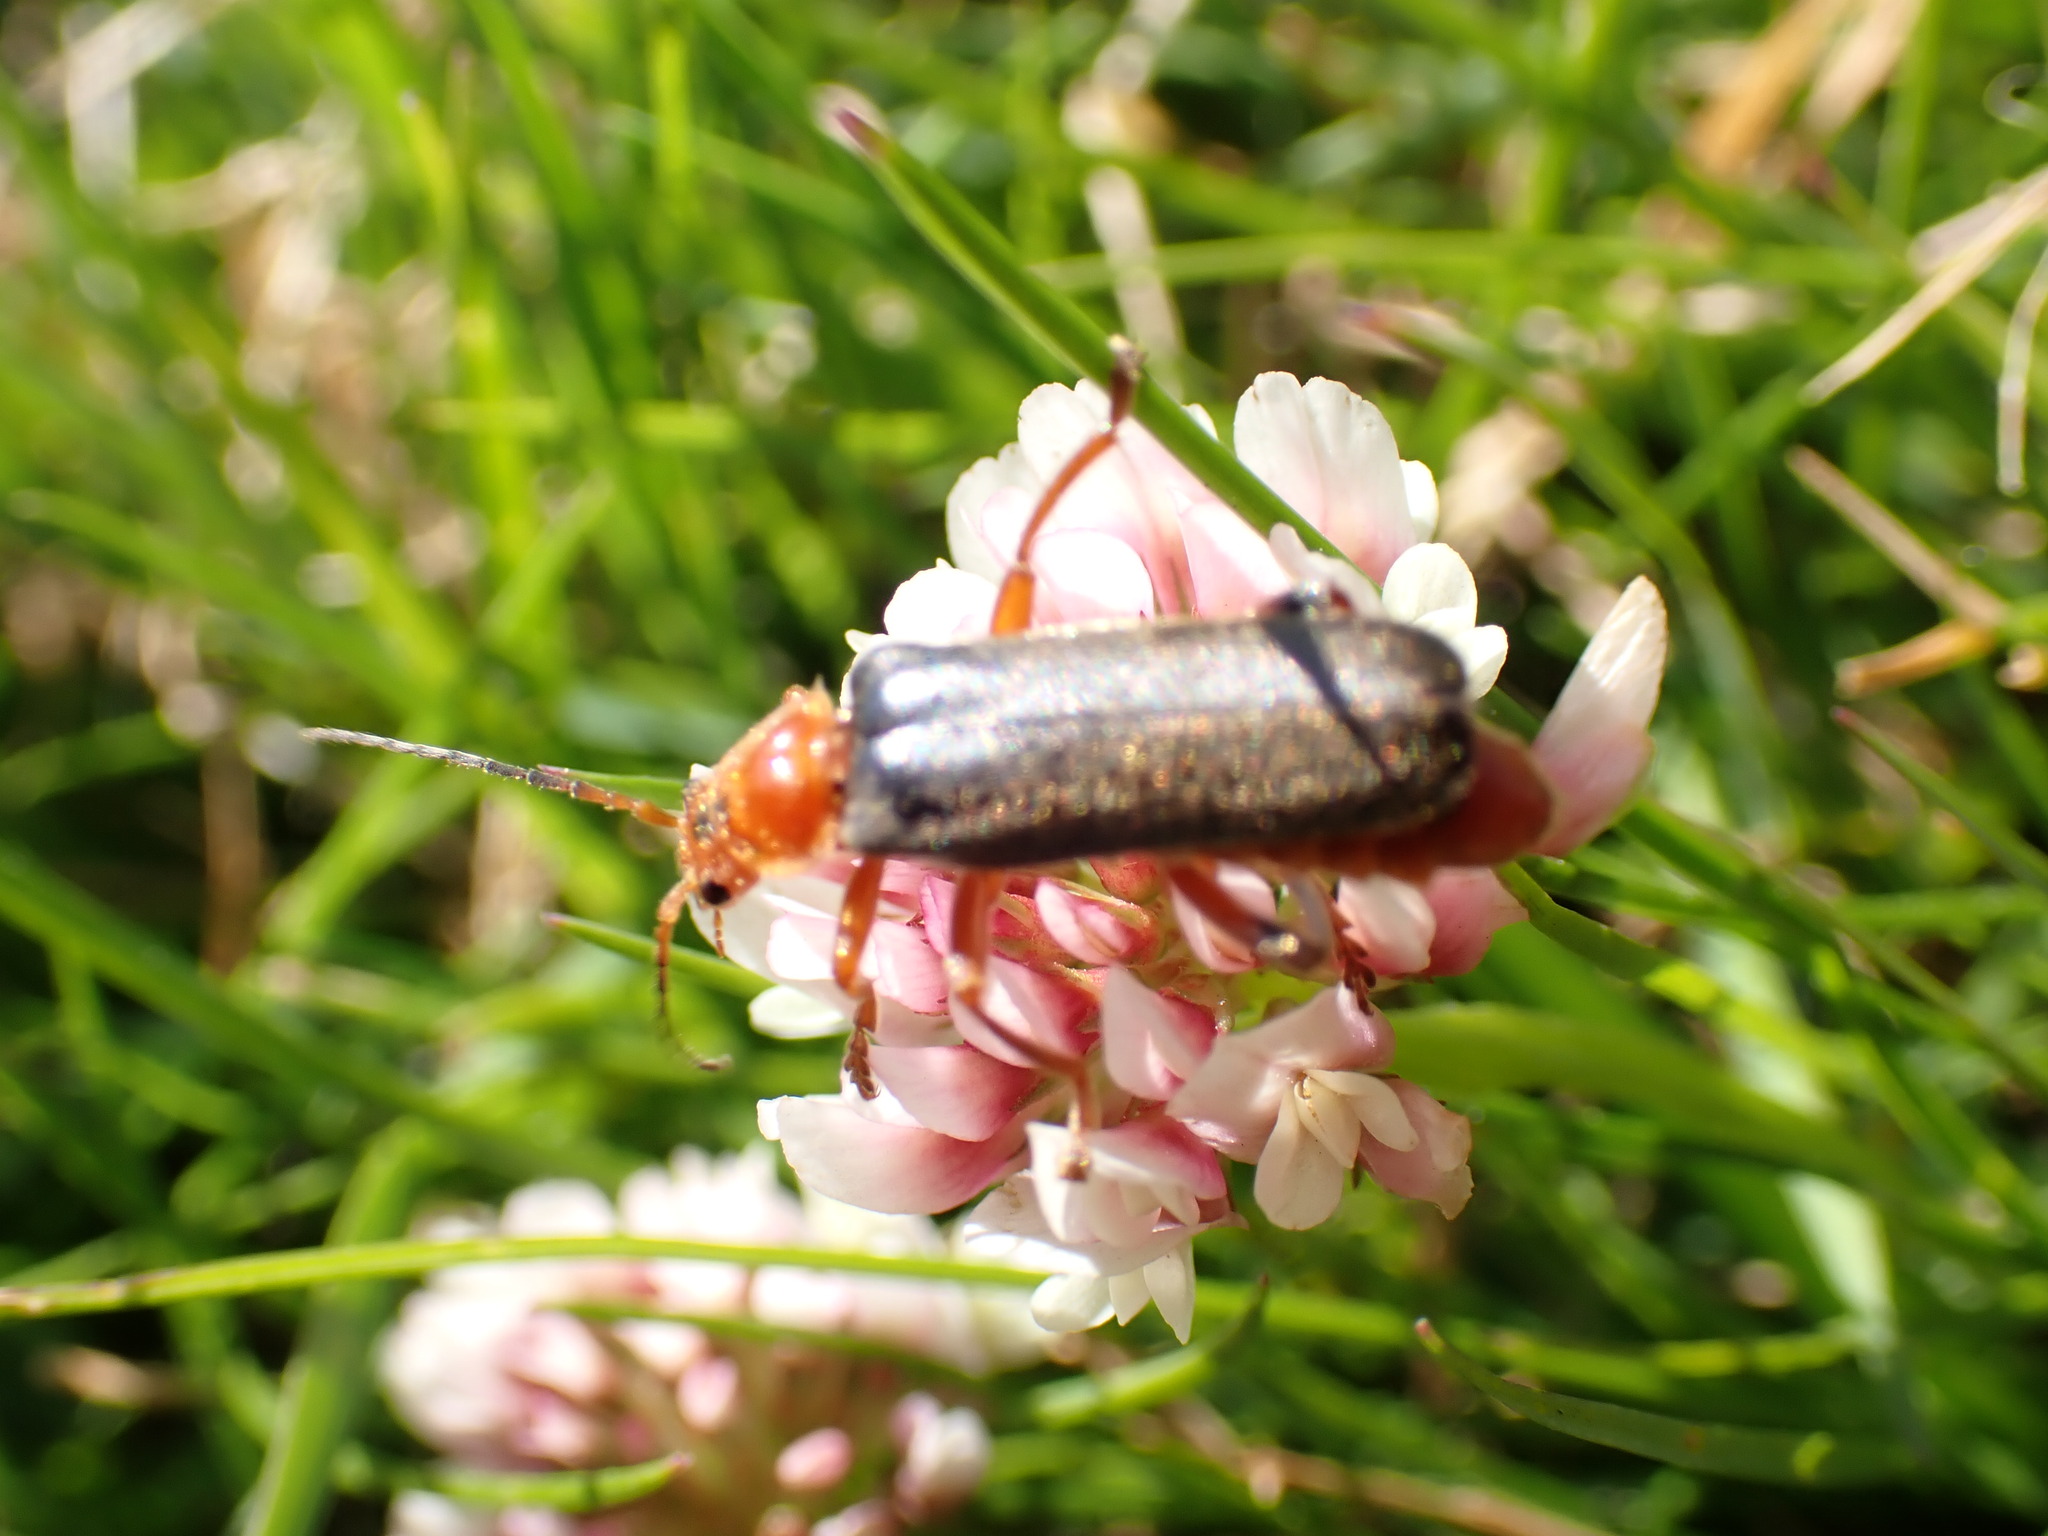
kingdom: Animalia
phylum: Arthropoda
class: Insecta
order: Coleoptera
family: Cantharidae
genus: Cantharis
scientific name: Cantharis livida
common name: Livid soldier beetle
